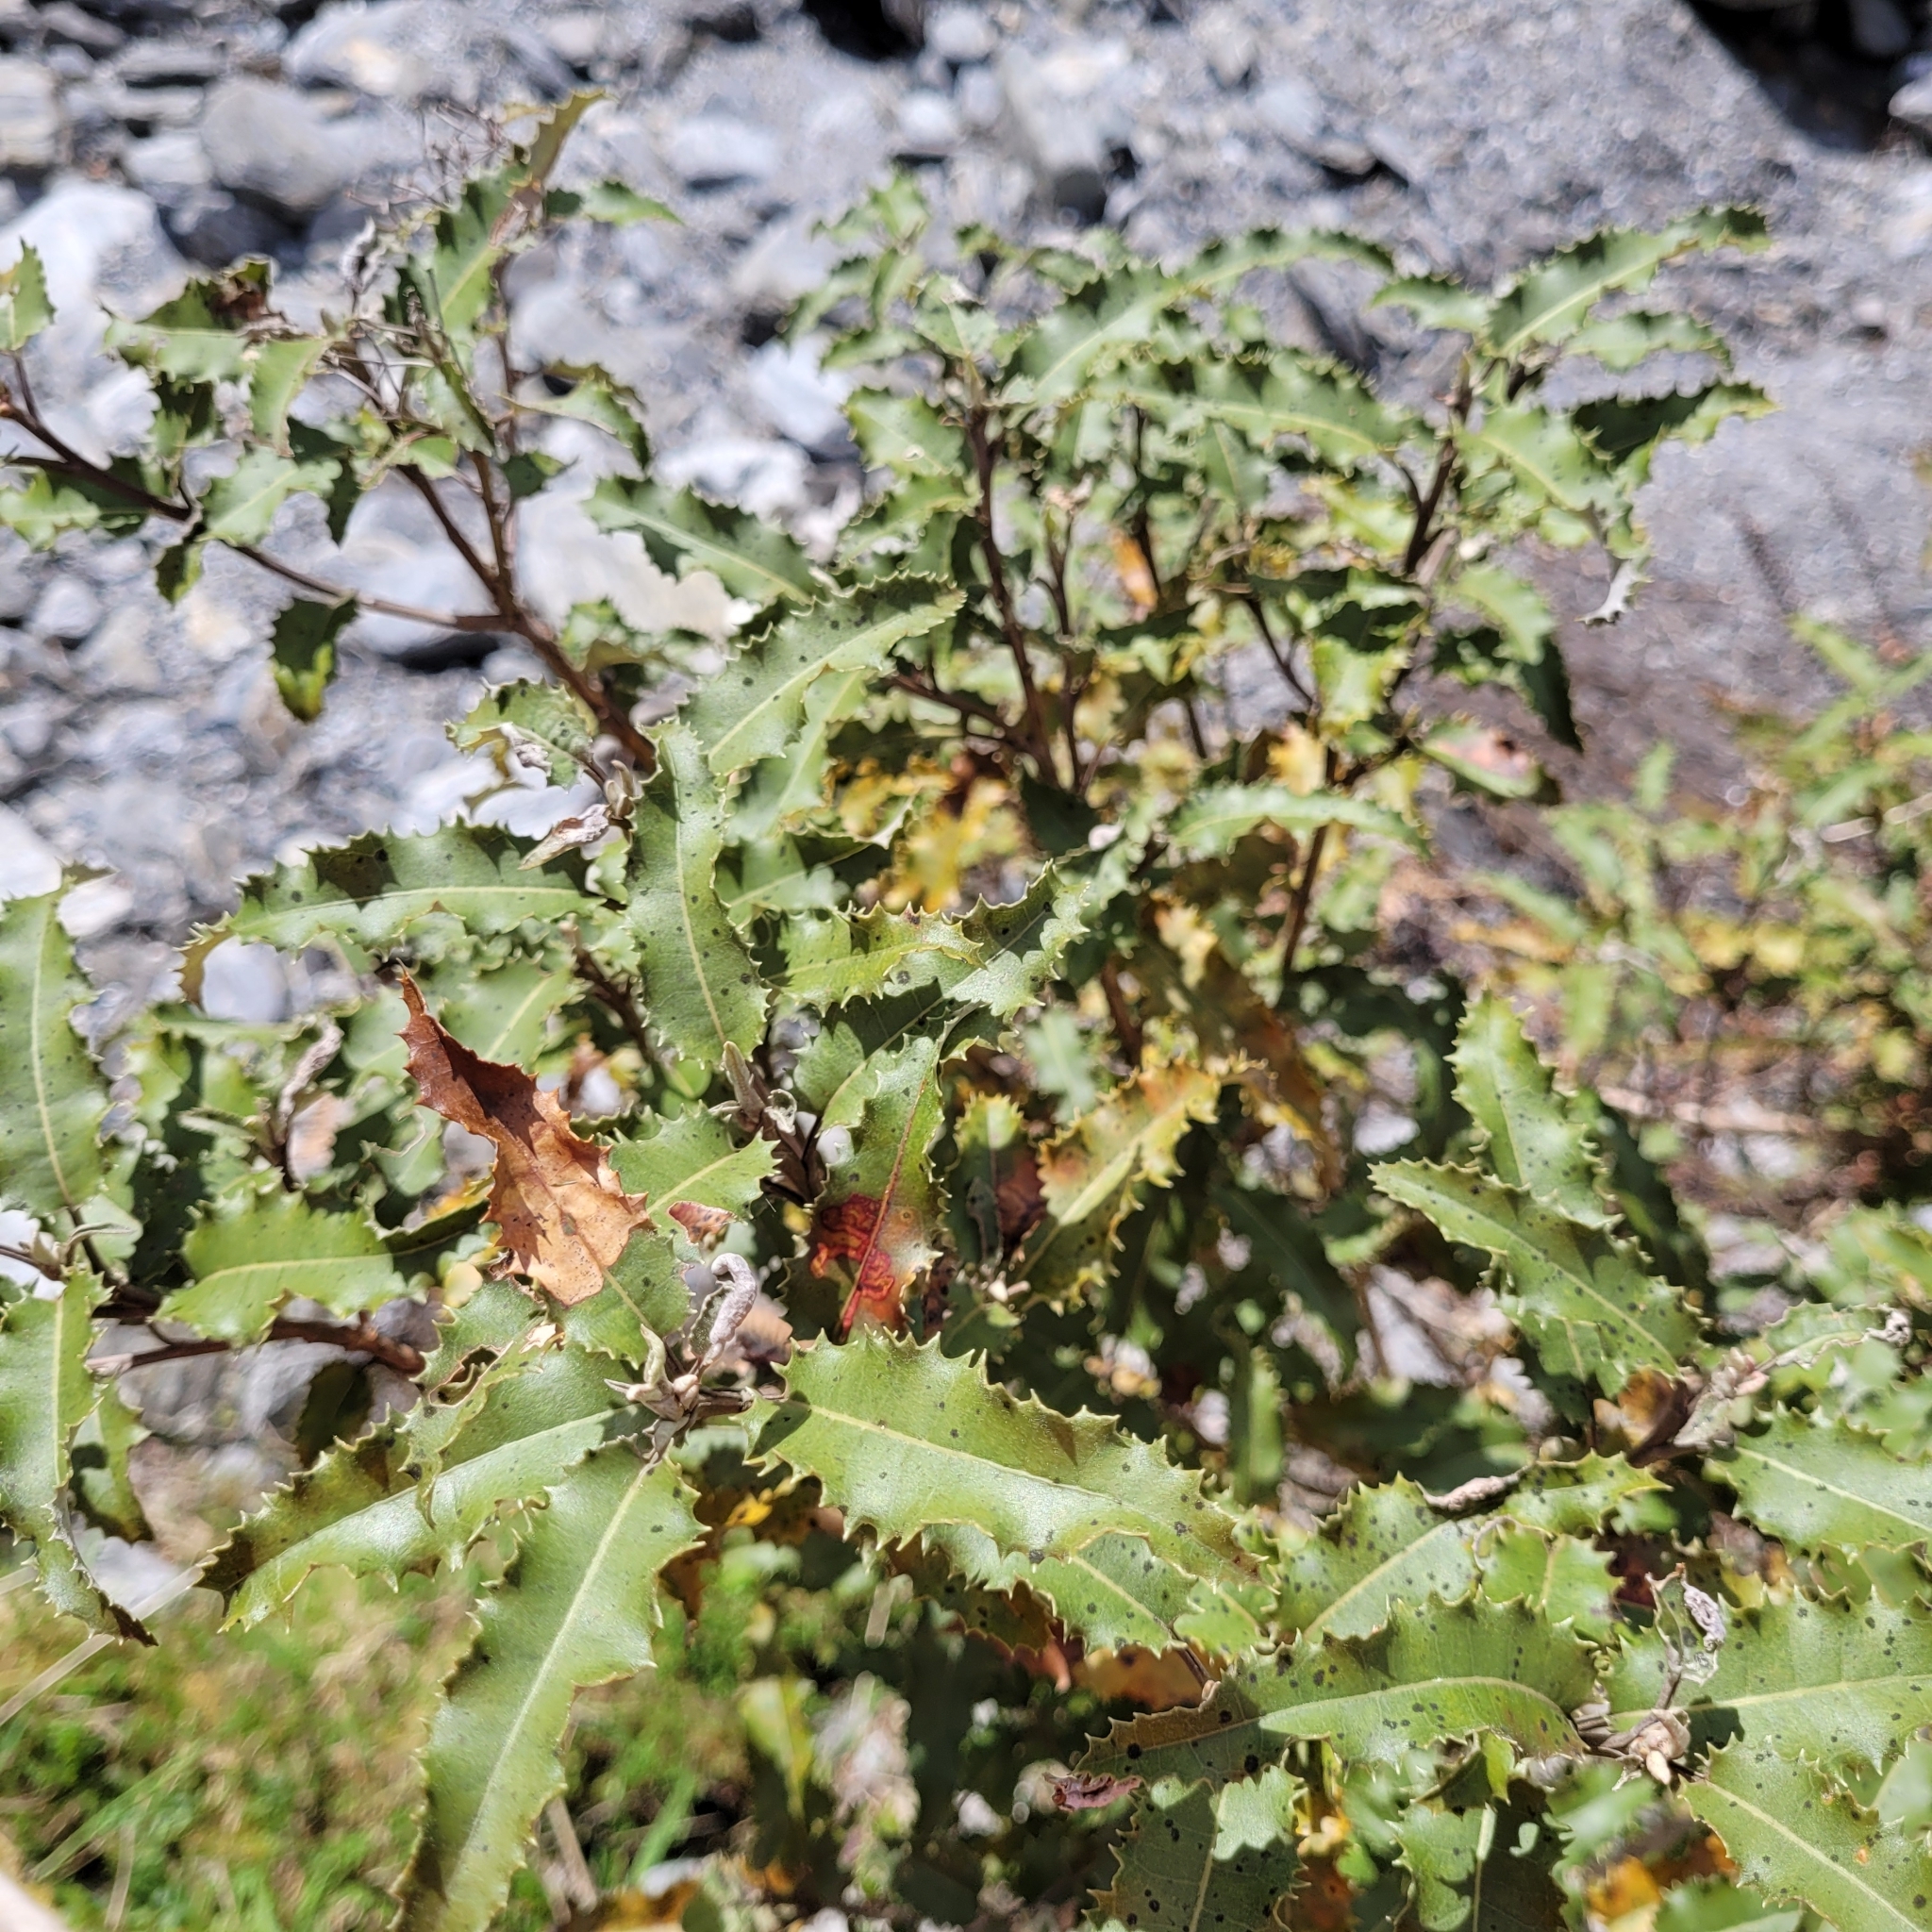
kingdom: Plantae
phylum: Tracheophyta
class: Magnoliopsida
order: Asterales
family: Asteraceae
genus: Olearia
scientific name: Olearia ilicifolia
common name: Maori-holly
